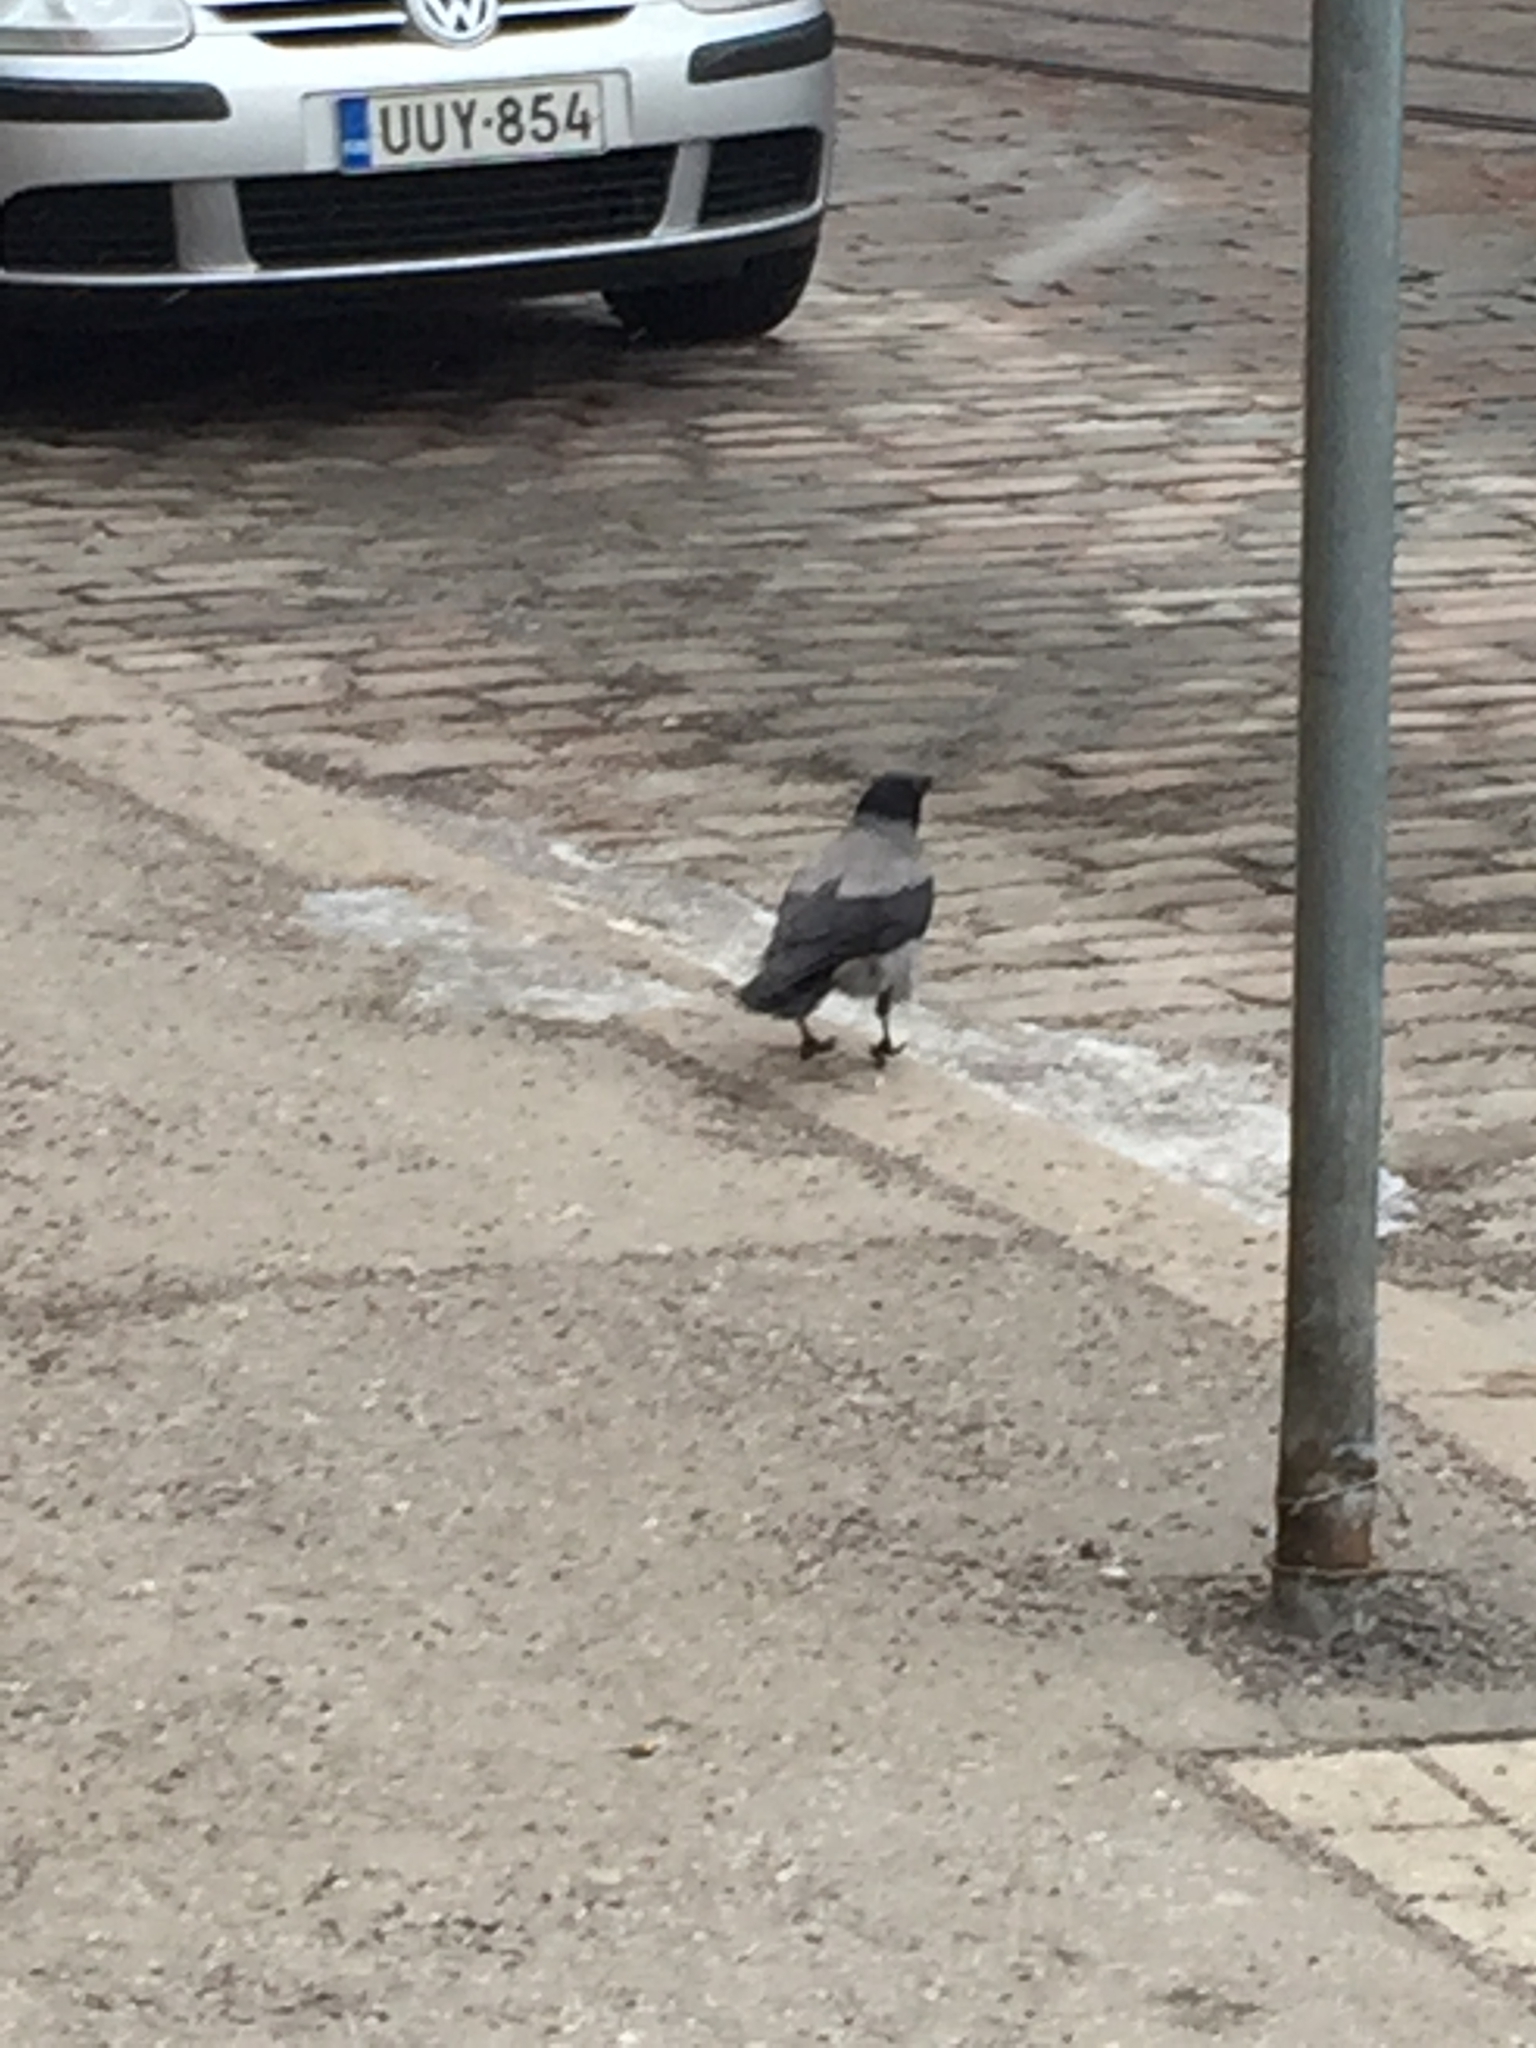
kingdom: Animalia
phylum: Chordata
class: Aves
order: Passeriformes
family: Corvidae
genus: Corvus
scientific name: Corvus cornix
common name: Hooded crow
